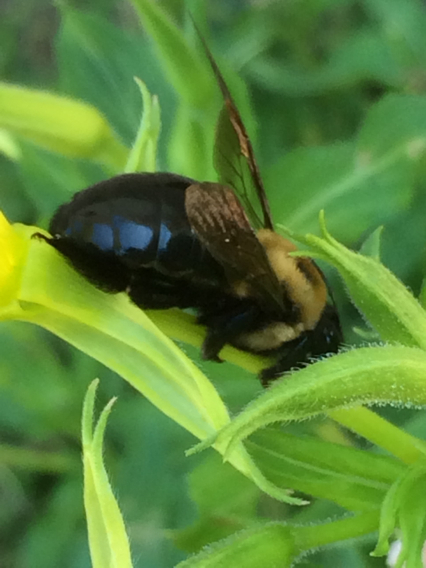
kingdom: Animalia
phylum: Arthropoda
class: Insecta
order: Hymenoptera
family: Apidae
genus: Xylocopa
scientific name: Xylocopa virginica
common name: Carpenter bee
